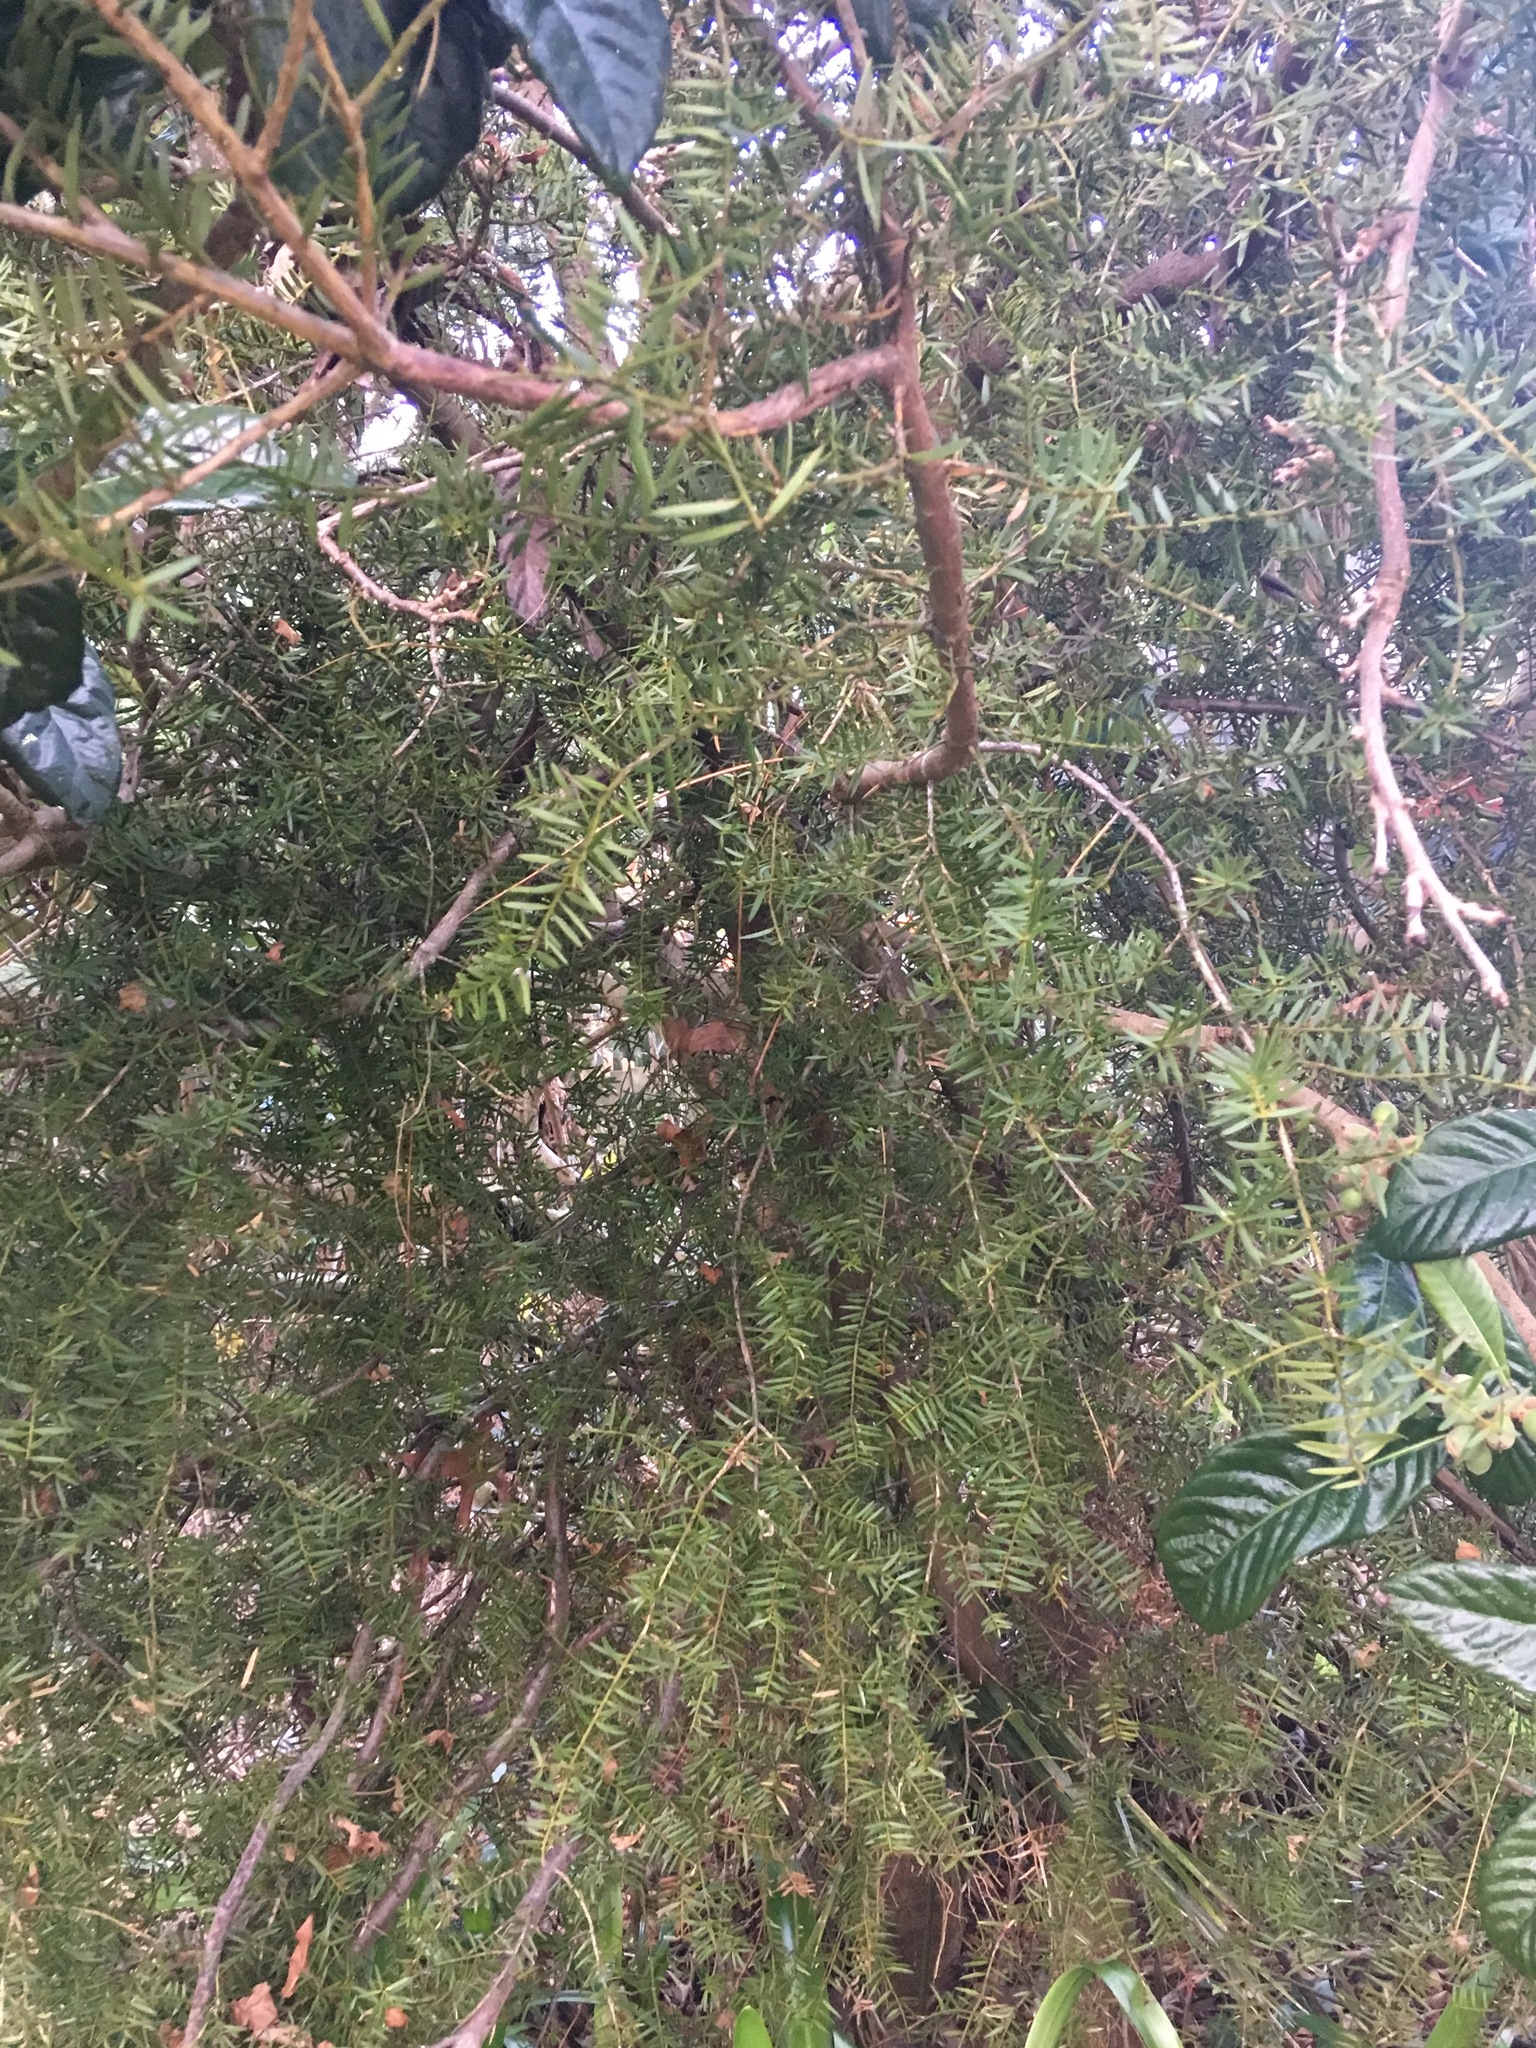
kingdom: Plantae
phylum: Tracheophyta
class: Pinopsida
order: Pinales
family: Podocarpaceae
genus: Podocarpus
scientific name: Podocarpus totara
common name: Totara
